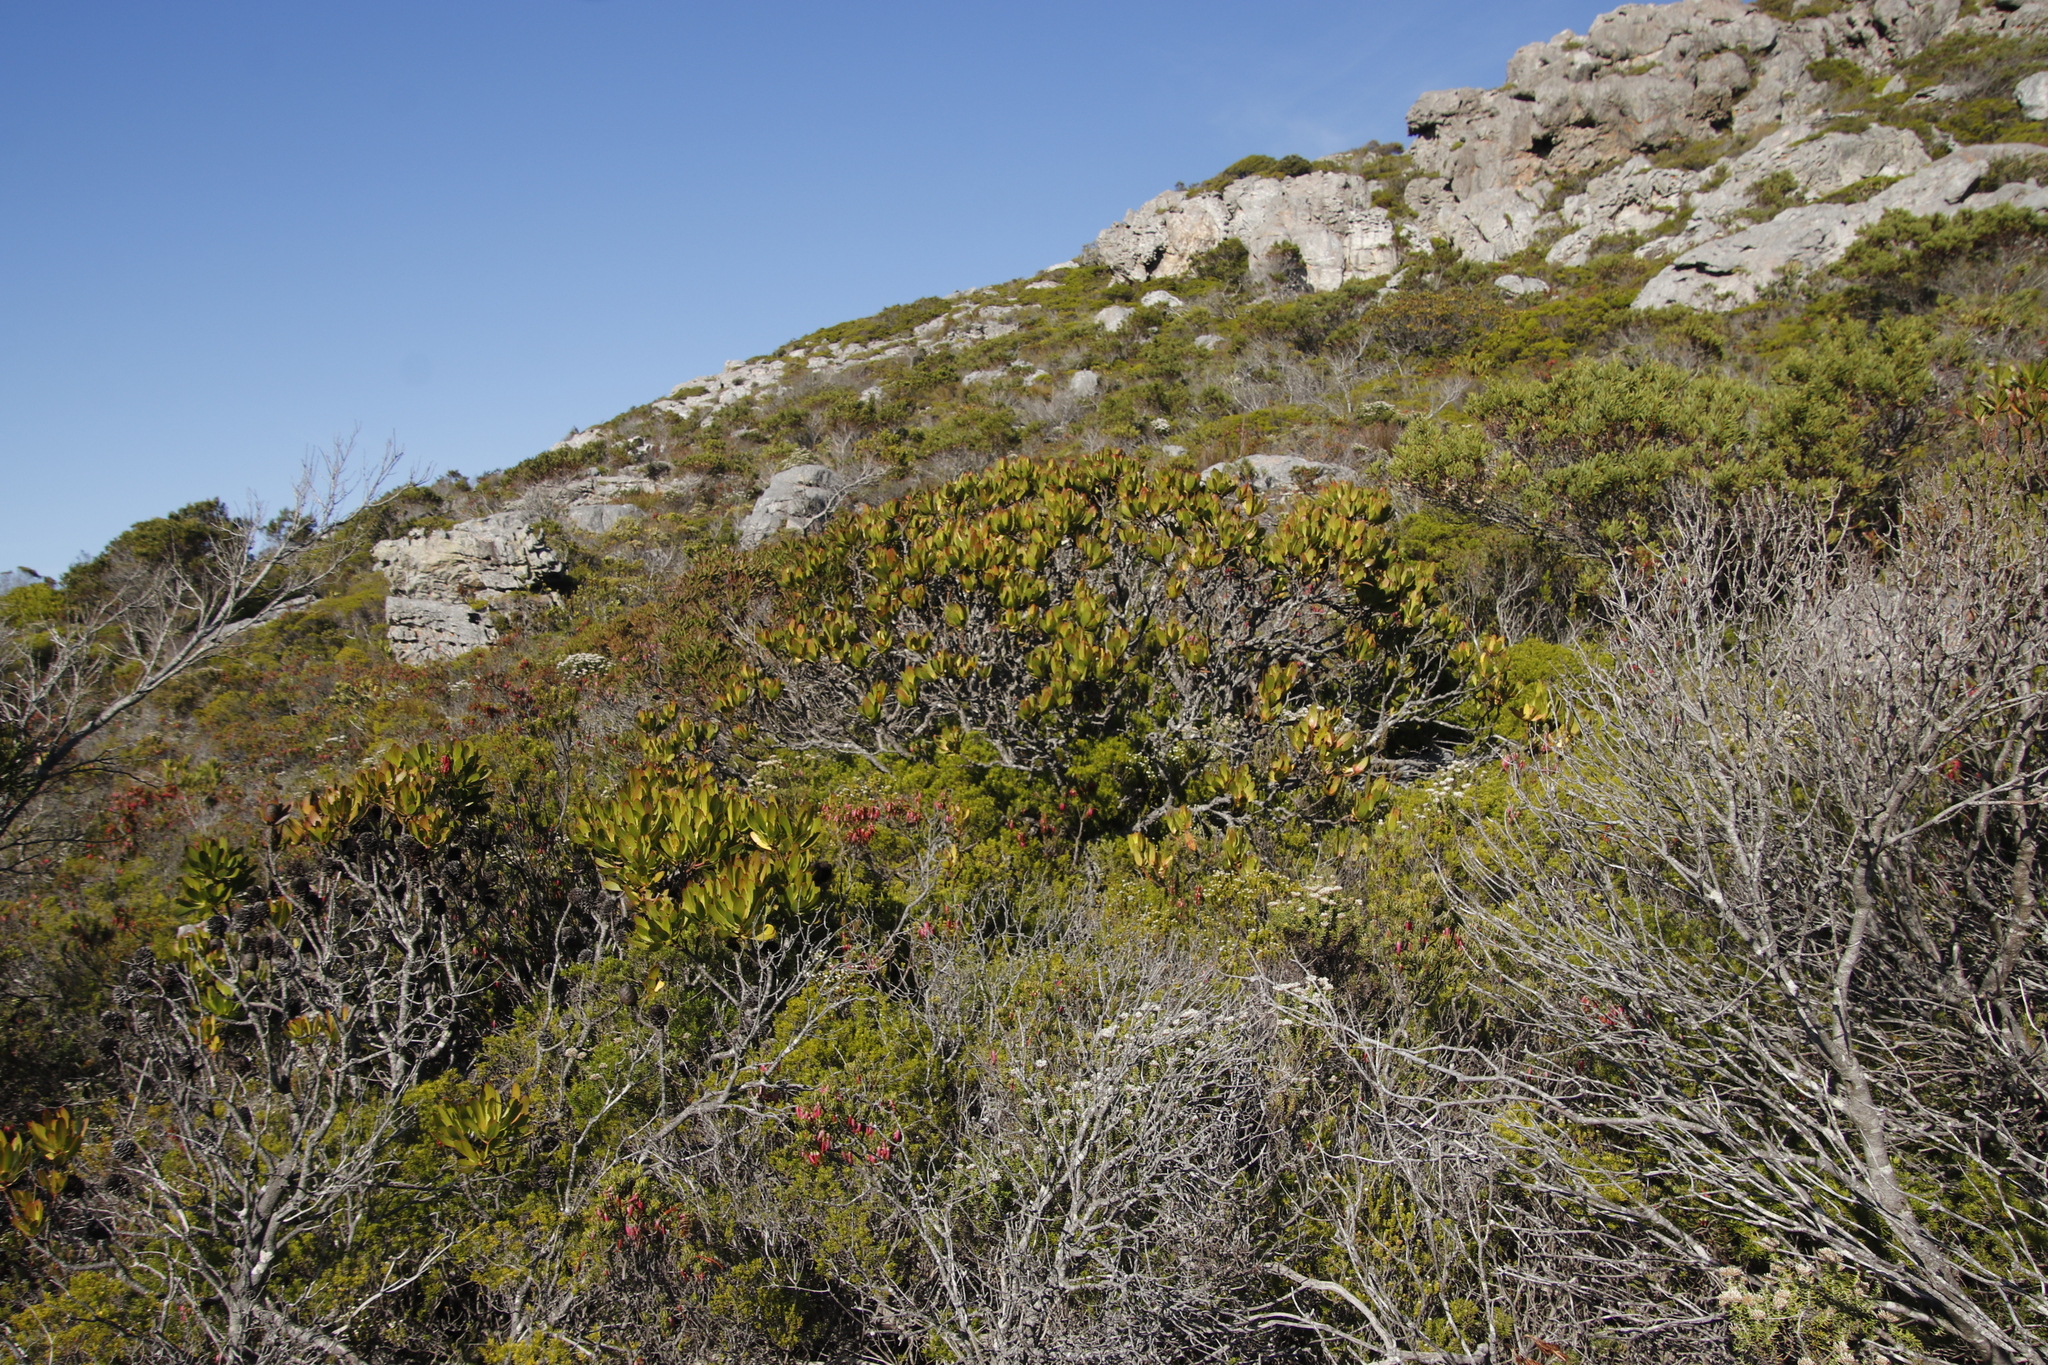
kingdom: Plantae
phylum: Tracheophyta
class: Magnoliopsida
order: Proteales
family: Proteaceae
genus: Leucadendron
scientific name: Leucadendron gandogeri
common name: Broad-leaf conebush
